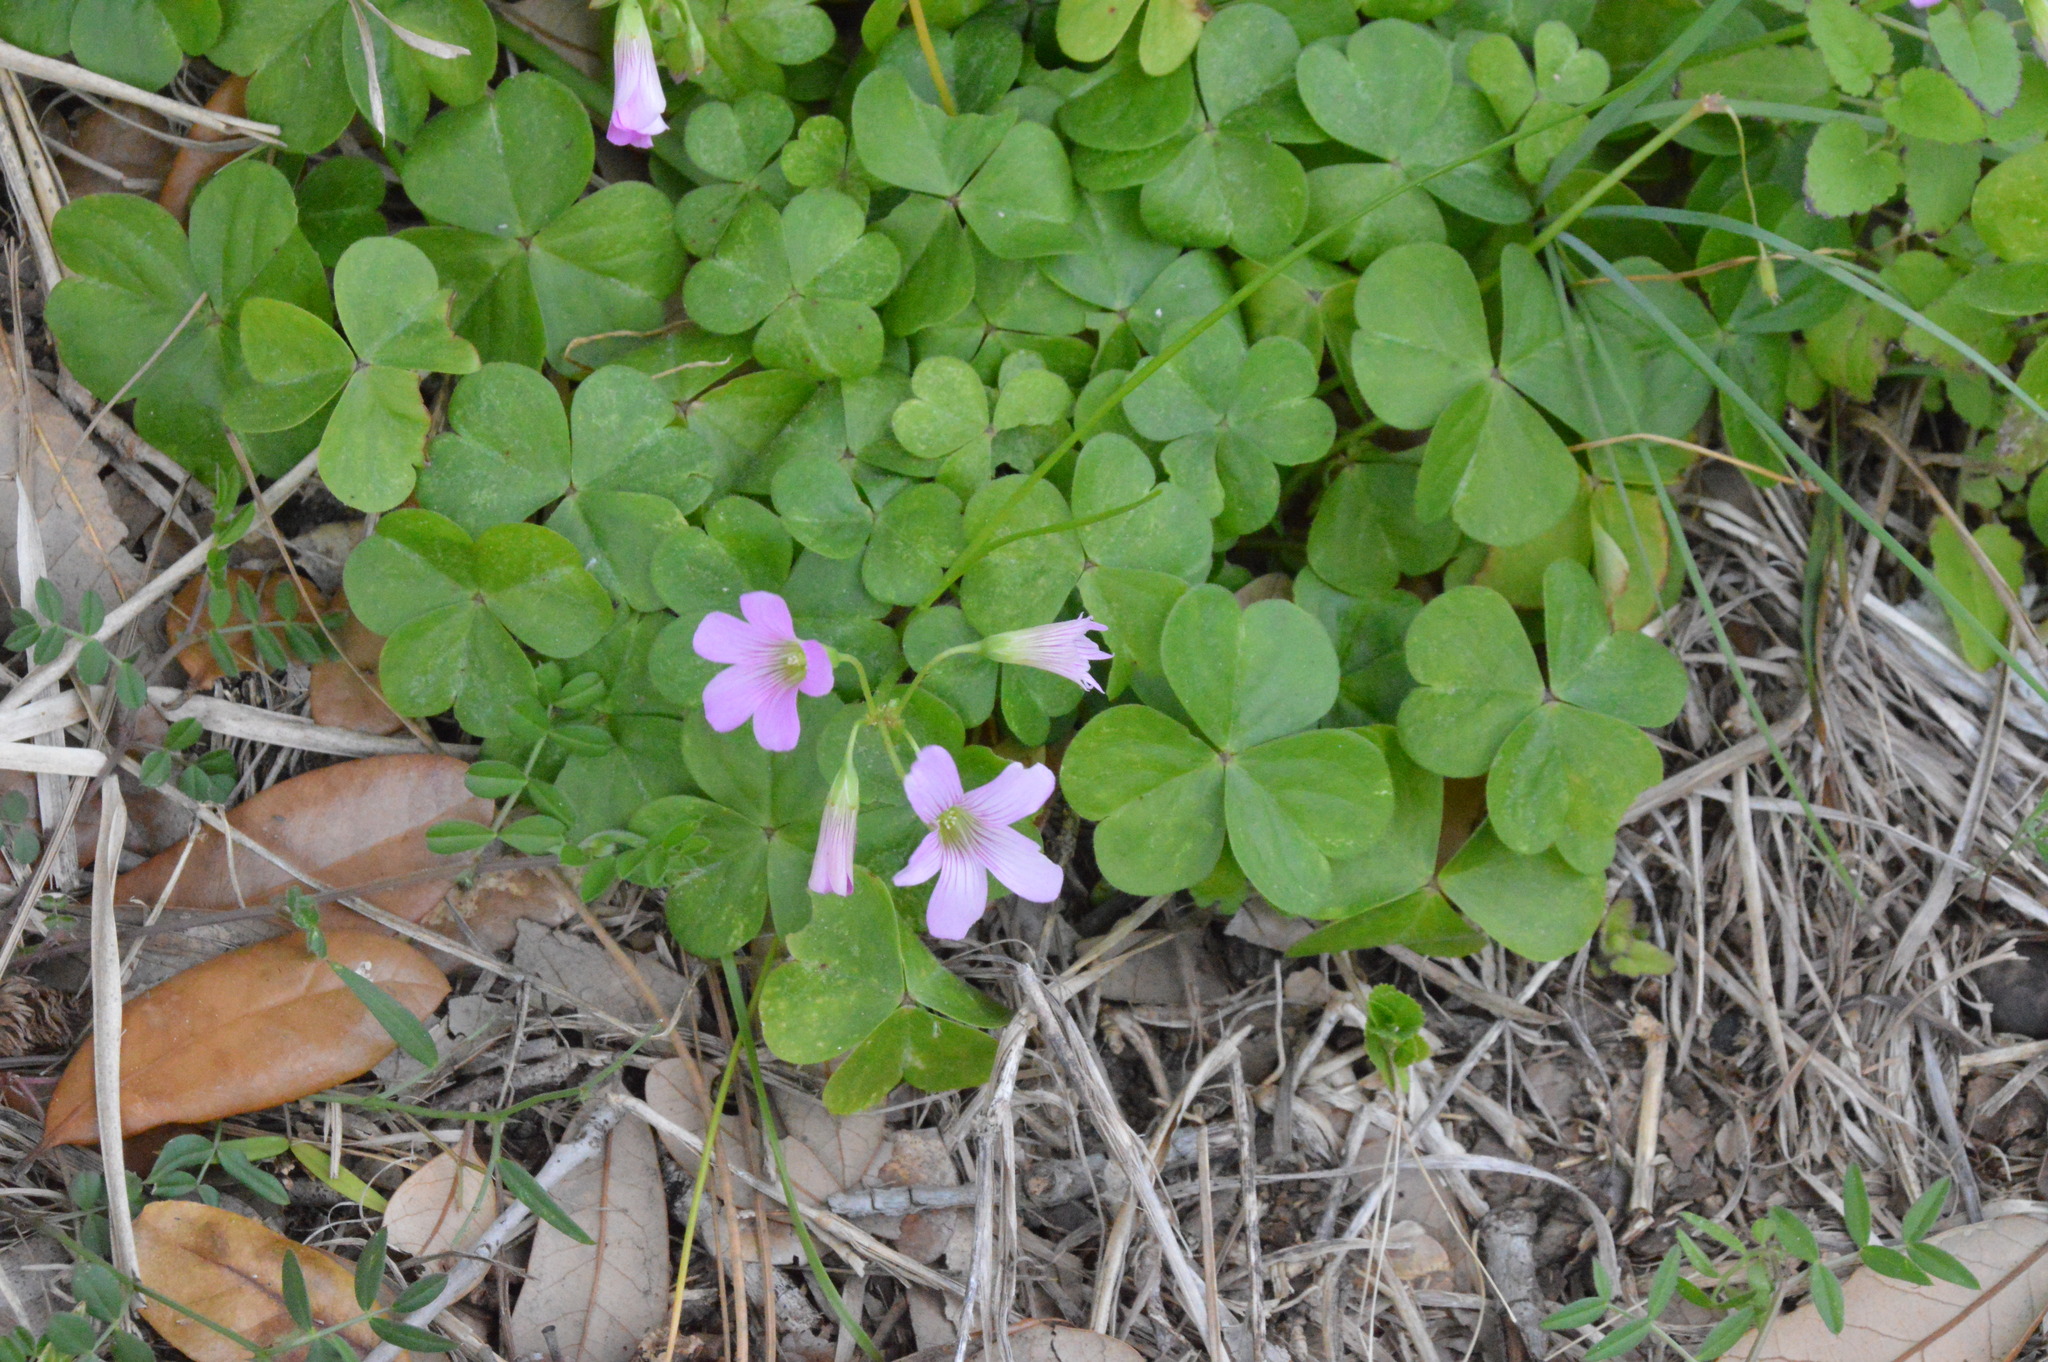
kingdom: Plantae
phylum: Tracheophyta
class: Magnoliopsida
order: Oxalidales
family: Oxalidaceae
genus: Oxalis
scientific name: Oxalis debilis
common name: Large-flowered pink-sorrel
